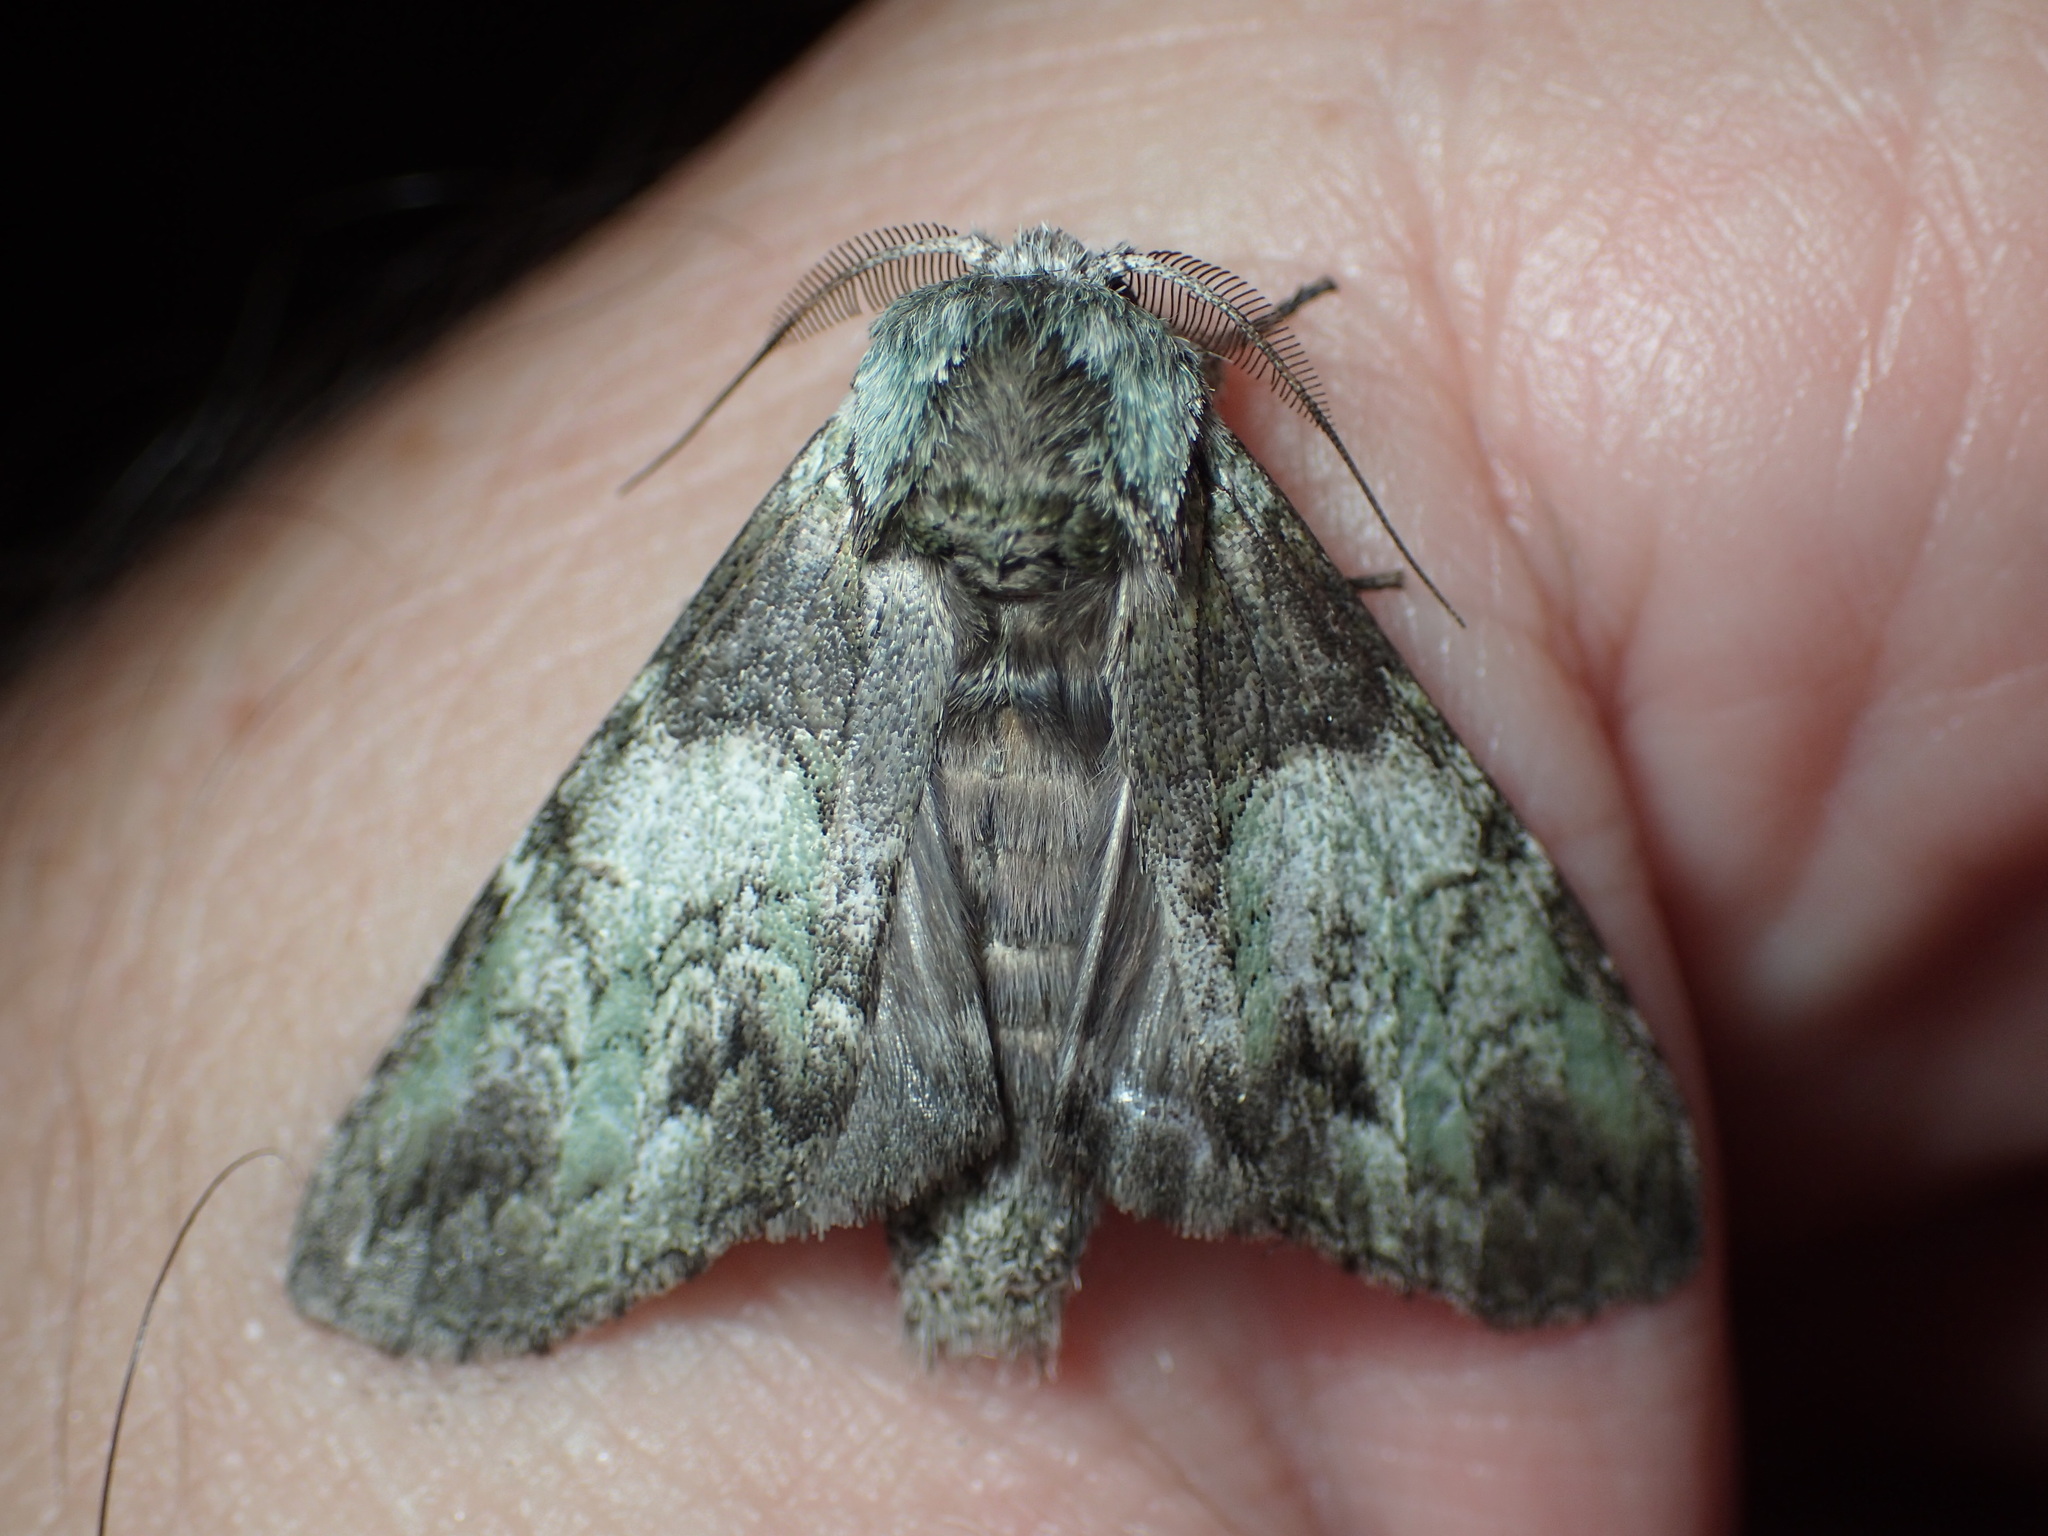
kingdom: Animalia
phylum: Arthropoda
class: Insecta
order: Lepidoptera
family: Notodontidae
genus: Macrurocampa
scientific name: Macrurocampa marthesia
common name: Mottled prominent
